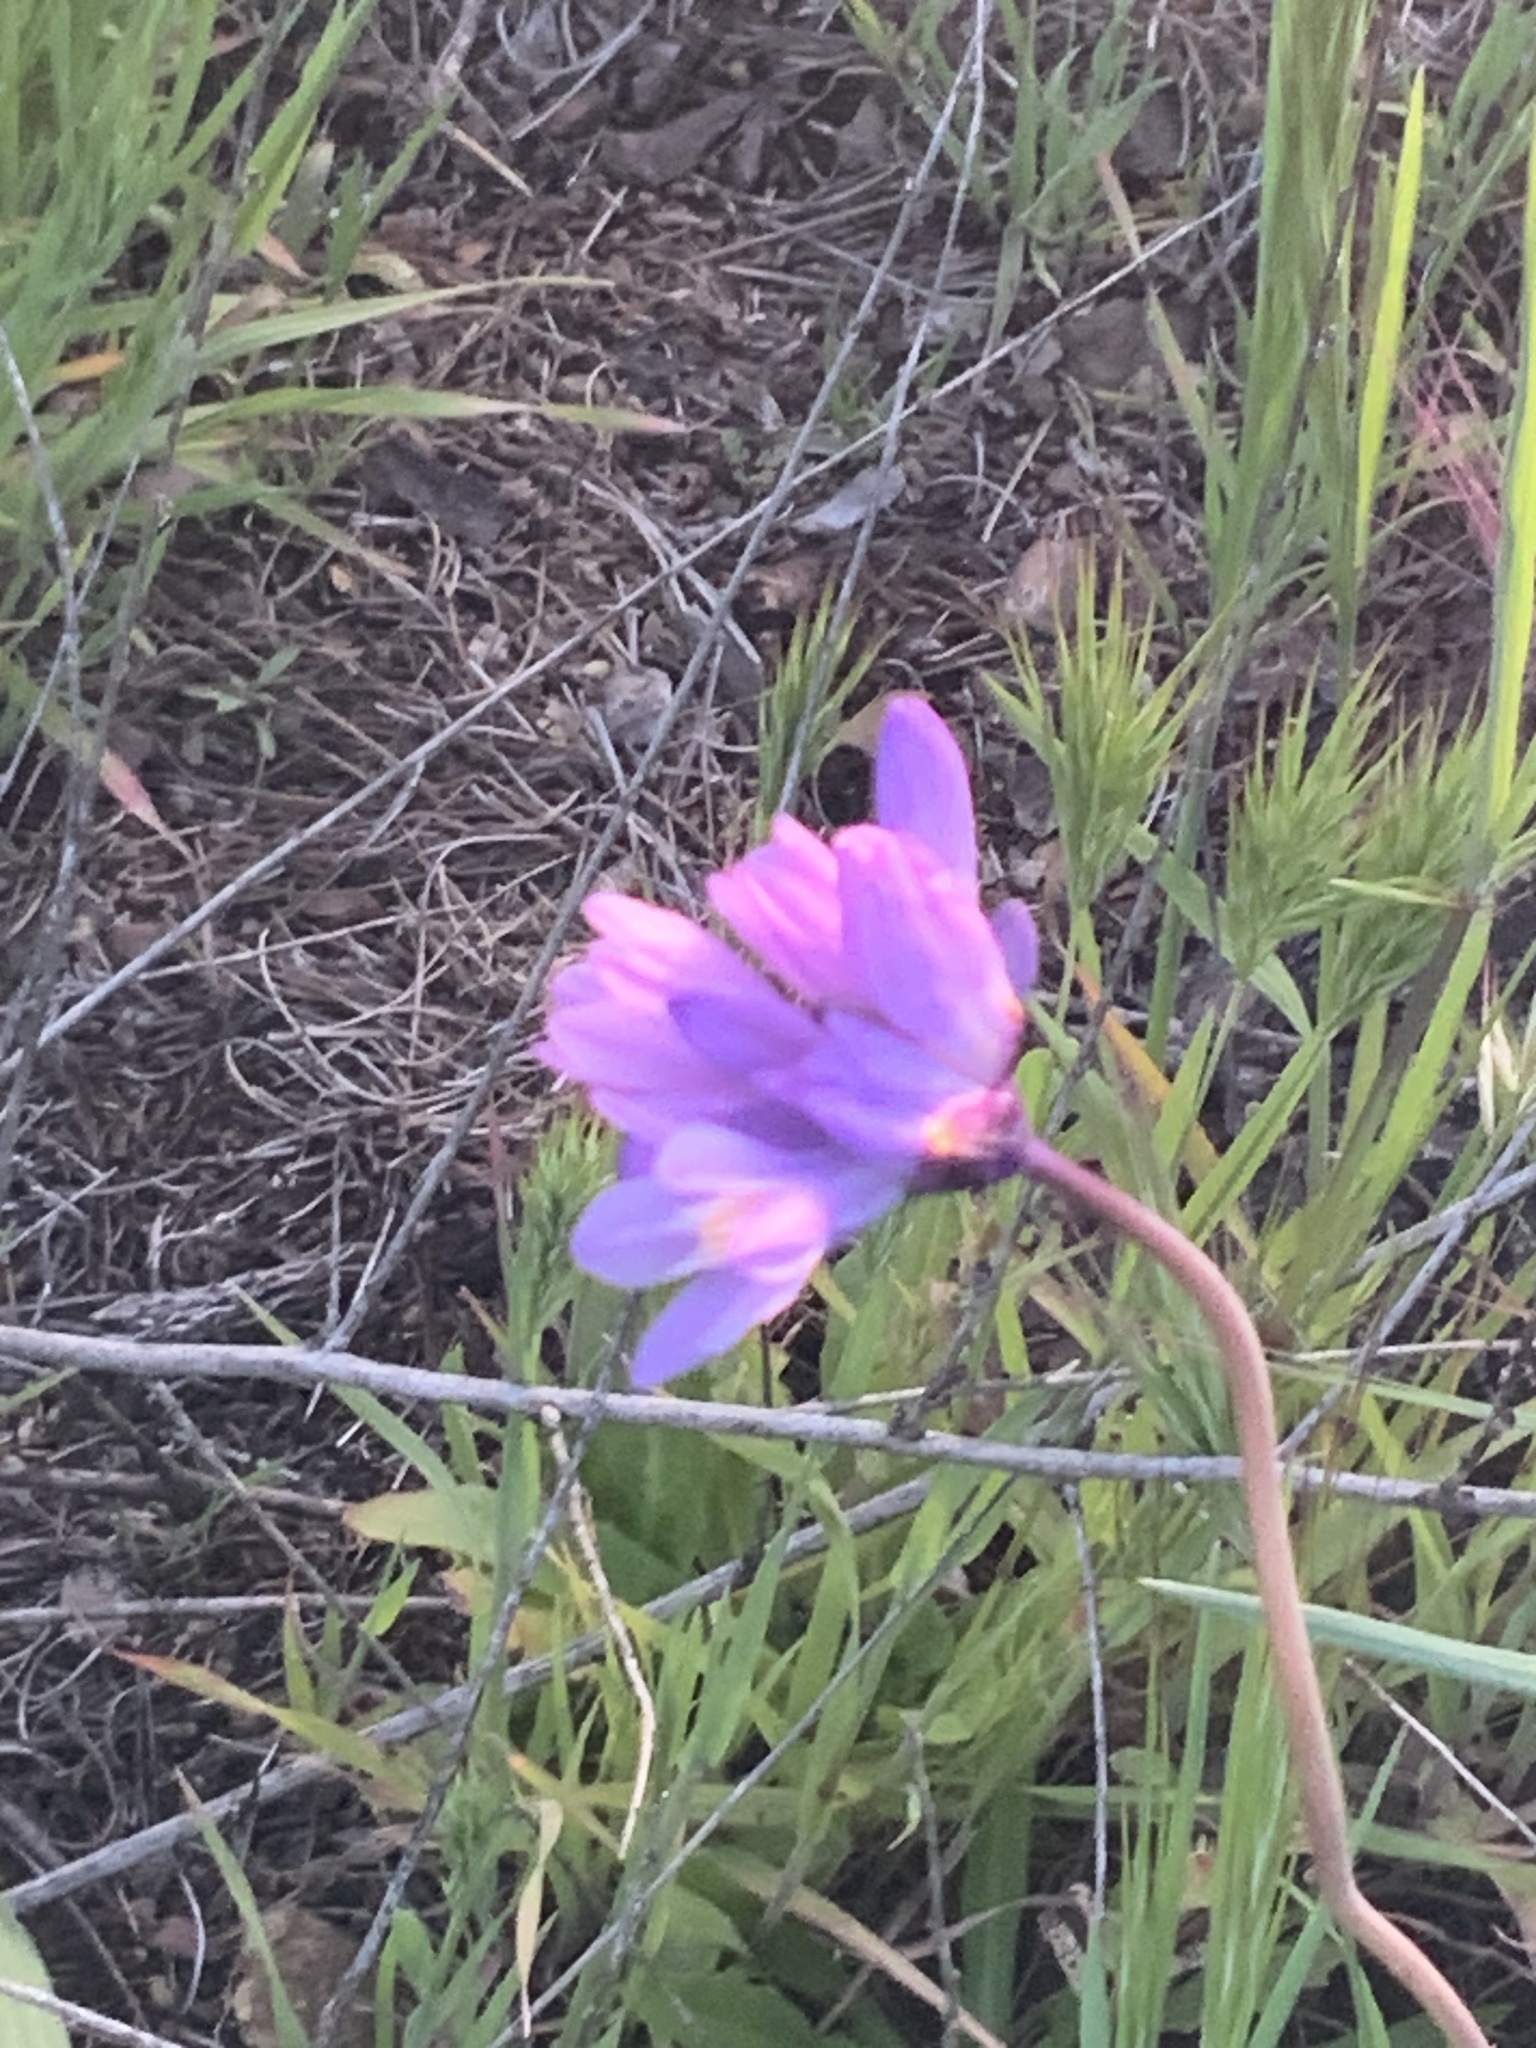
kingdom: Plantae
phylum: Tracheophyta
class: Liliopsida
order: Asparagales
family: Asparagaceae
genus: Dipterostemon
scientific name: Dipterostemon capitatus
